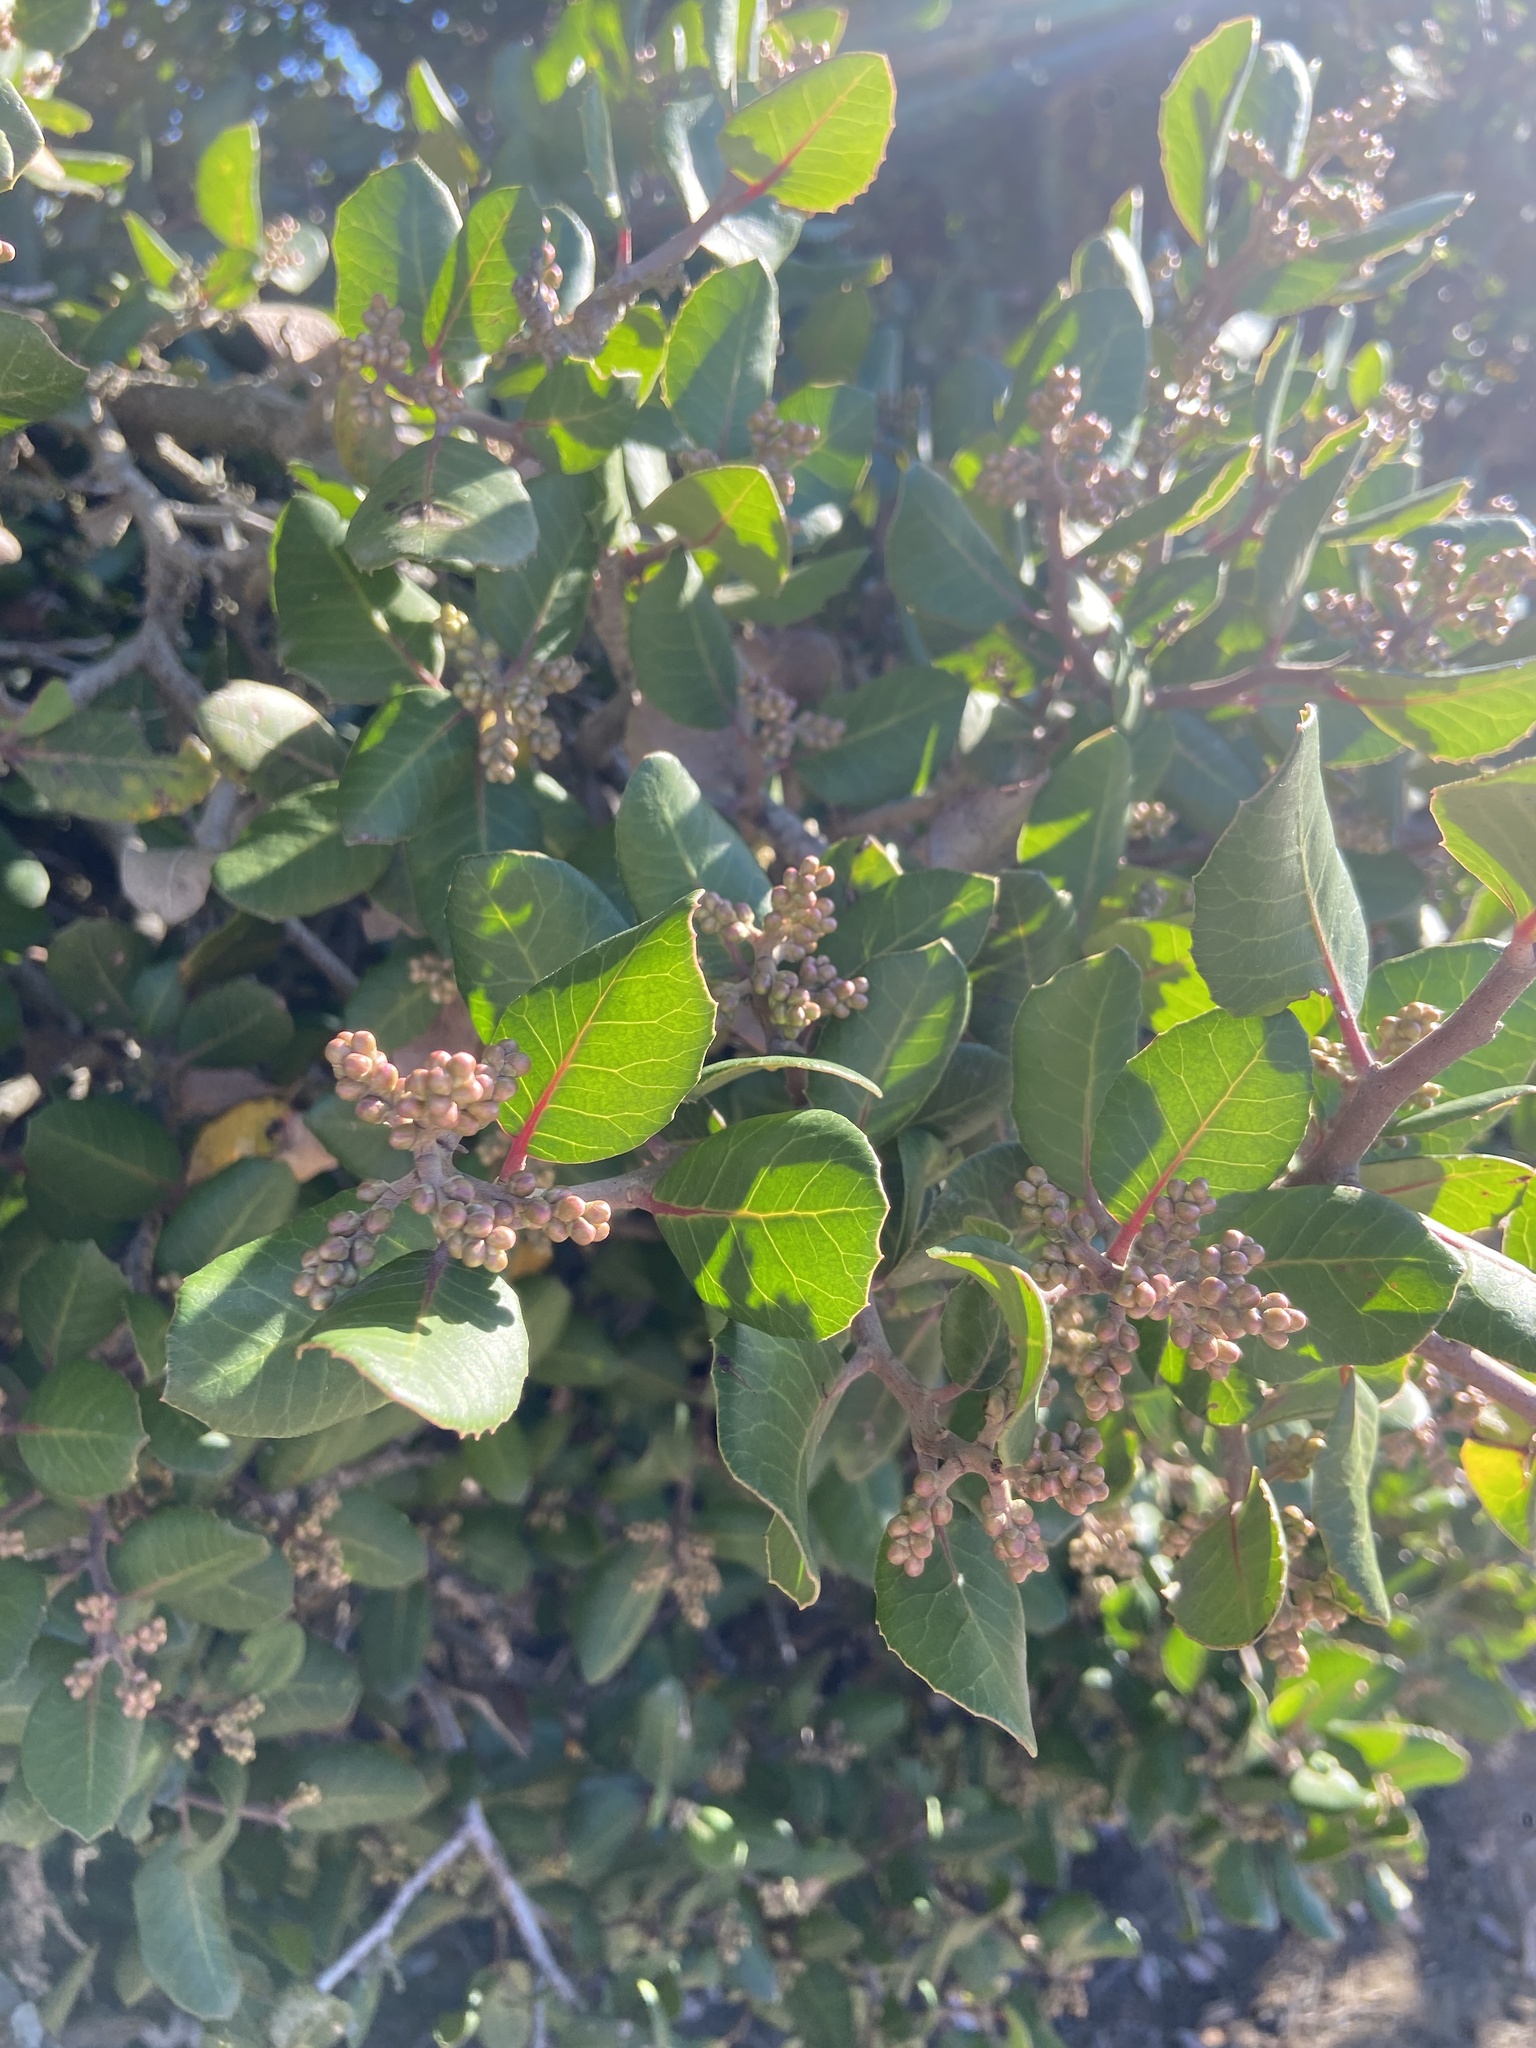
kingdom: Plantae
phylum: Tracheophyta
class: Magnoliopsida
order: Sapindales
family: Anacardiaceae
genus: Rhus
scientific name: Rhus integrifolia
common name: Lemonade sumac
